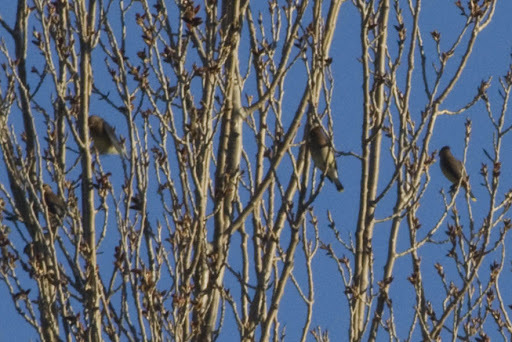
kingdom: Animalia
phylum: Chordata
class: Aves
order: Passeriformes
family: Bombycillidae
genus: Bombycilla
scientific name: Bombycilla cedrorum
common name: Cedar waxwing
